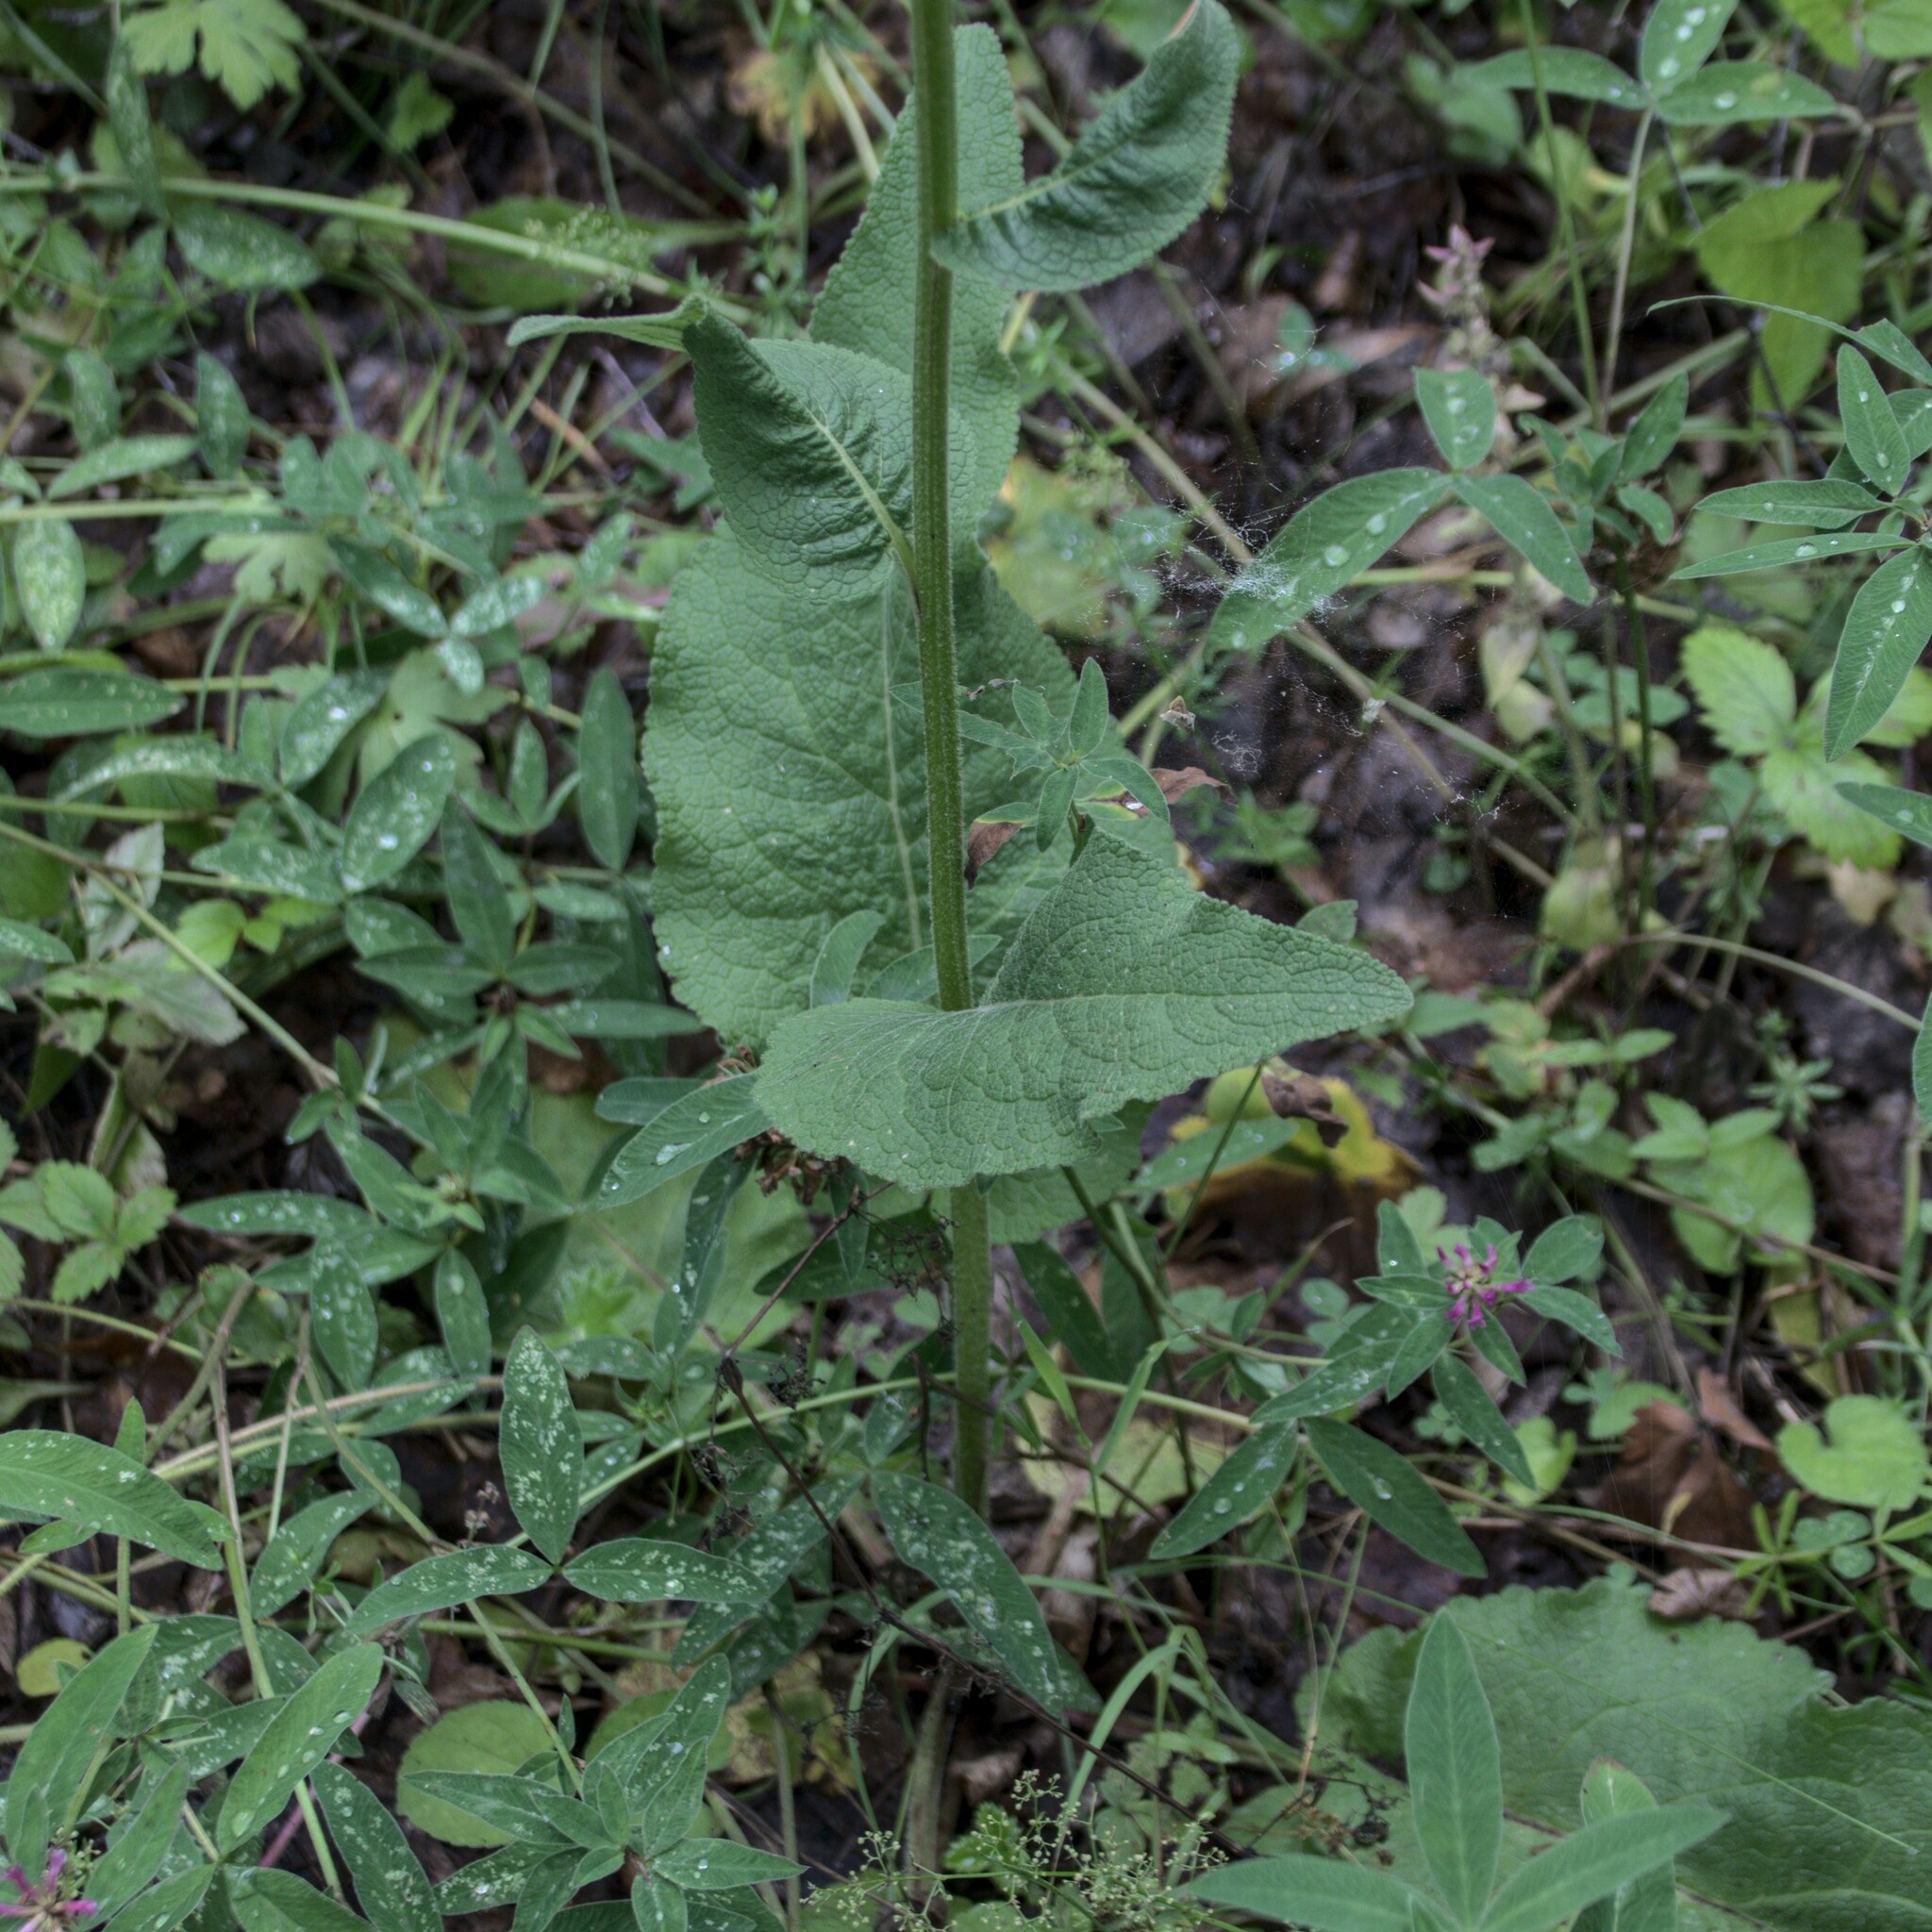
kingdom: Plantae
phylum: Tracheophyta
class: Magnoliopsida
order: Lamiales
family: Scrophulariaceae
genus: Verbascum
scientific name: Verbascum nigrum
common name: Dark mullein
